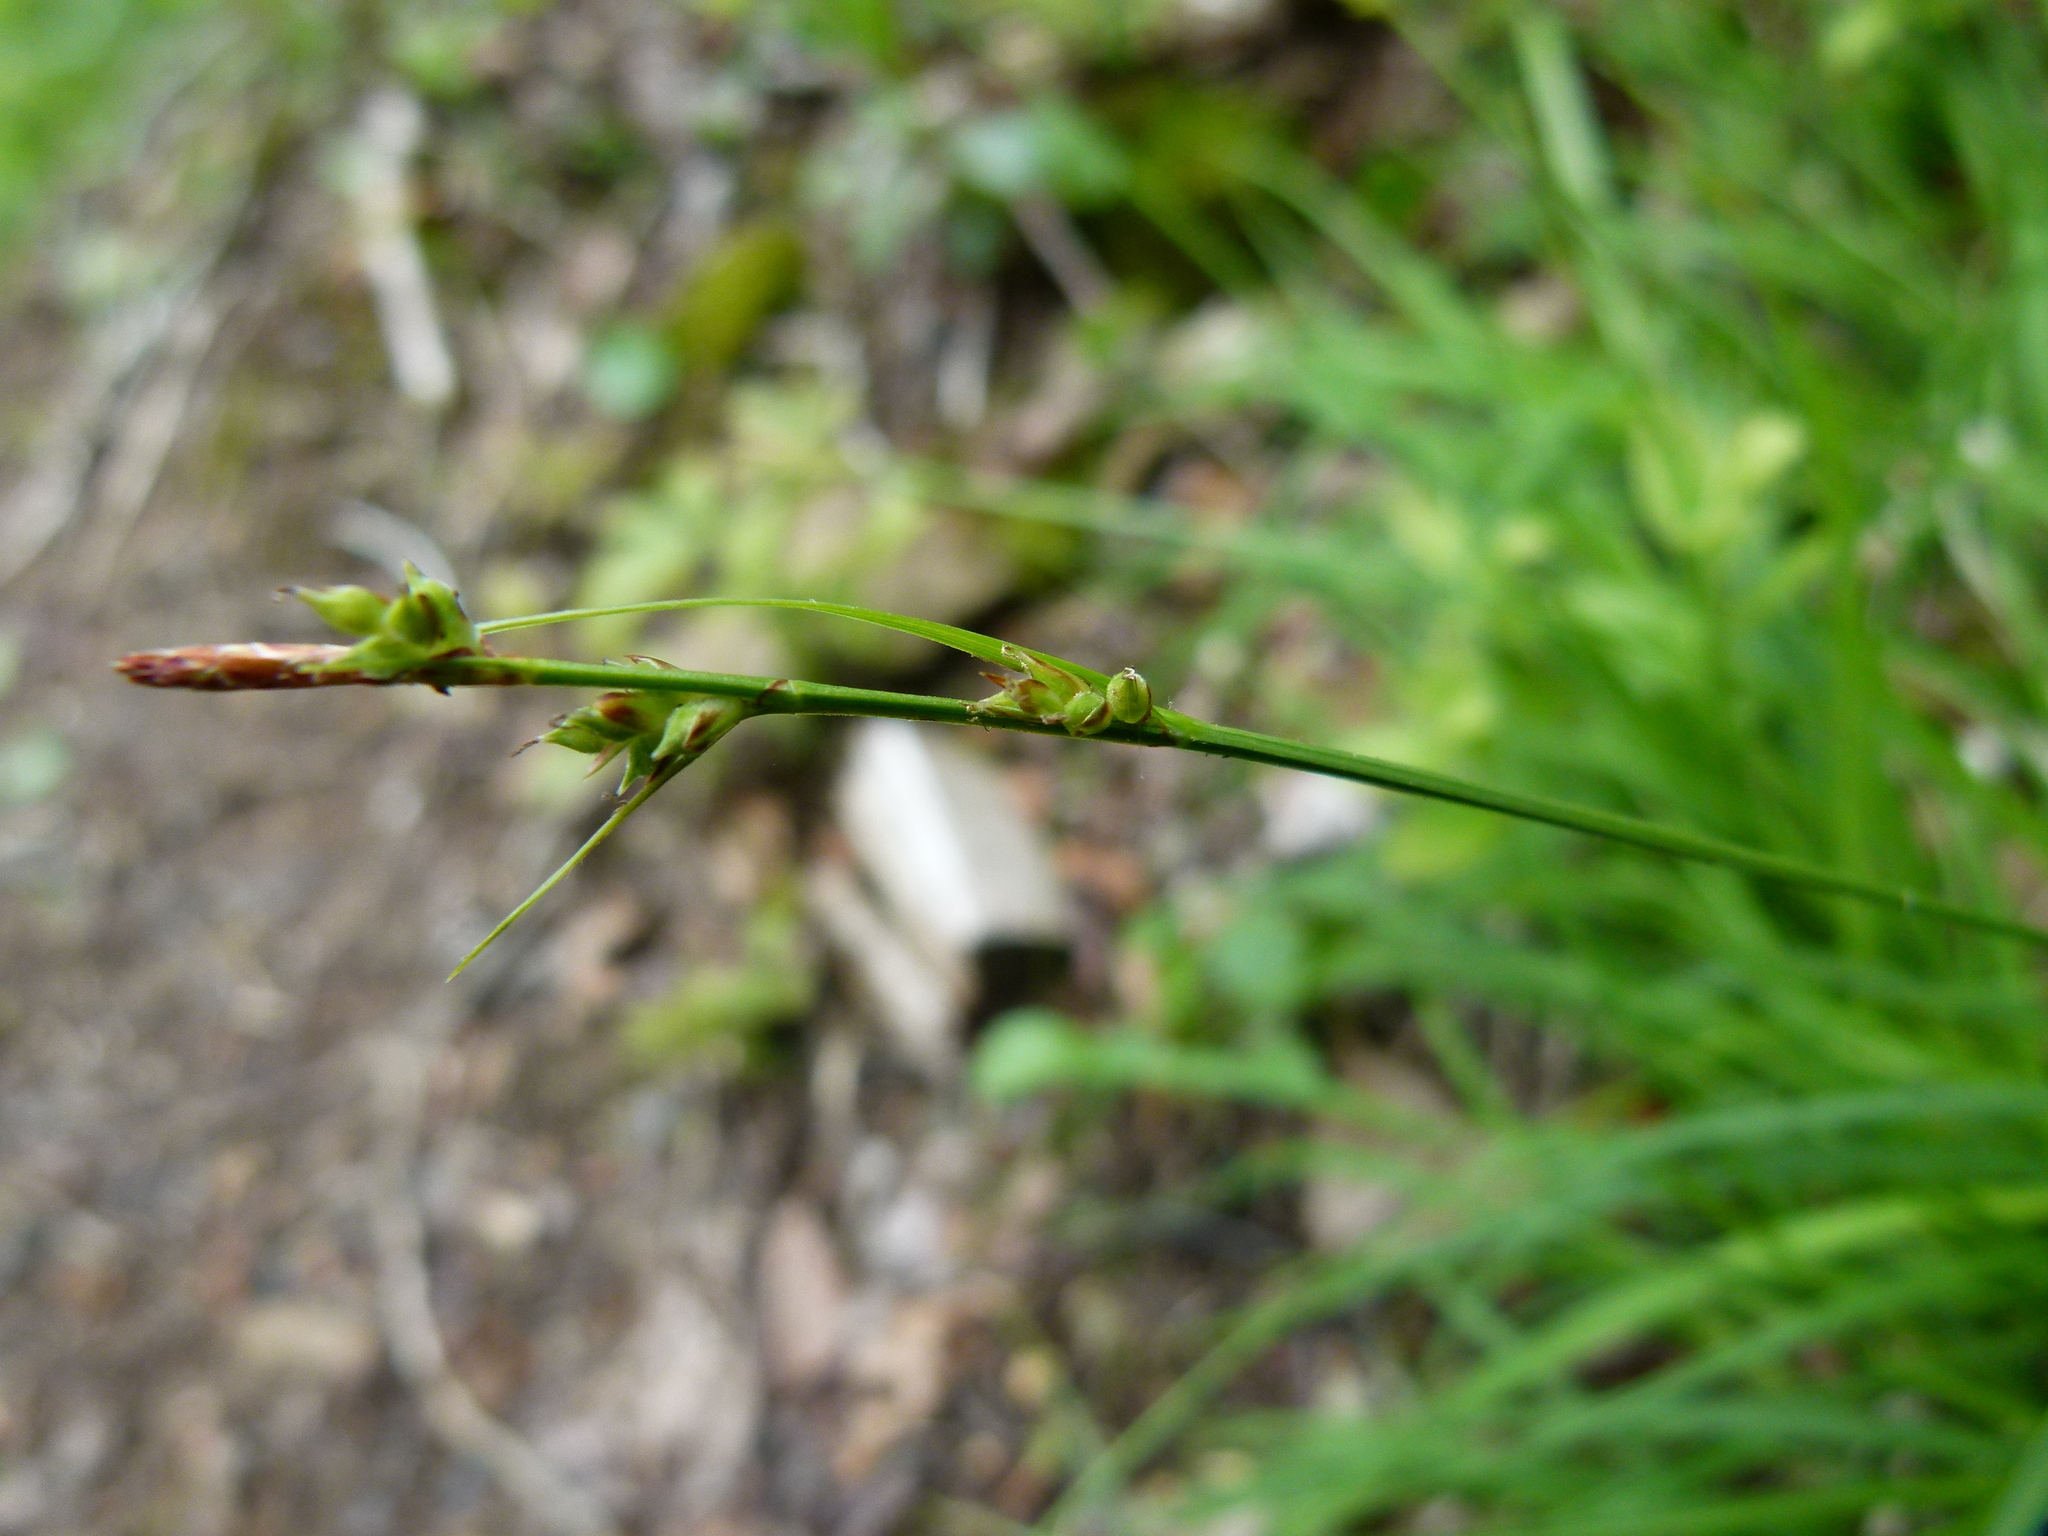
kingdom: Plantae
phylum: Tracheophyta
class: Liliopsida
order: Poales
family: Cyperaceae
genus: Carex
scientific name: Carex communis
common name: Colonial oak sedge
